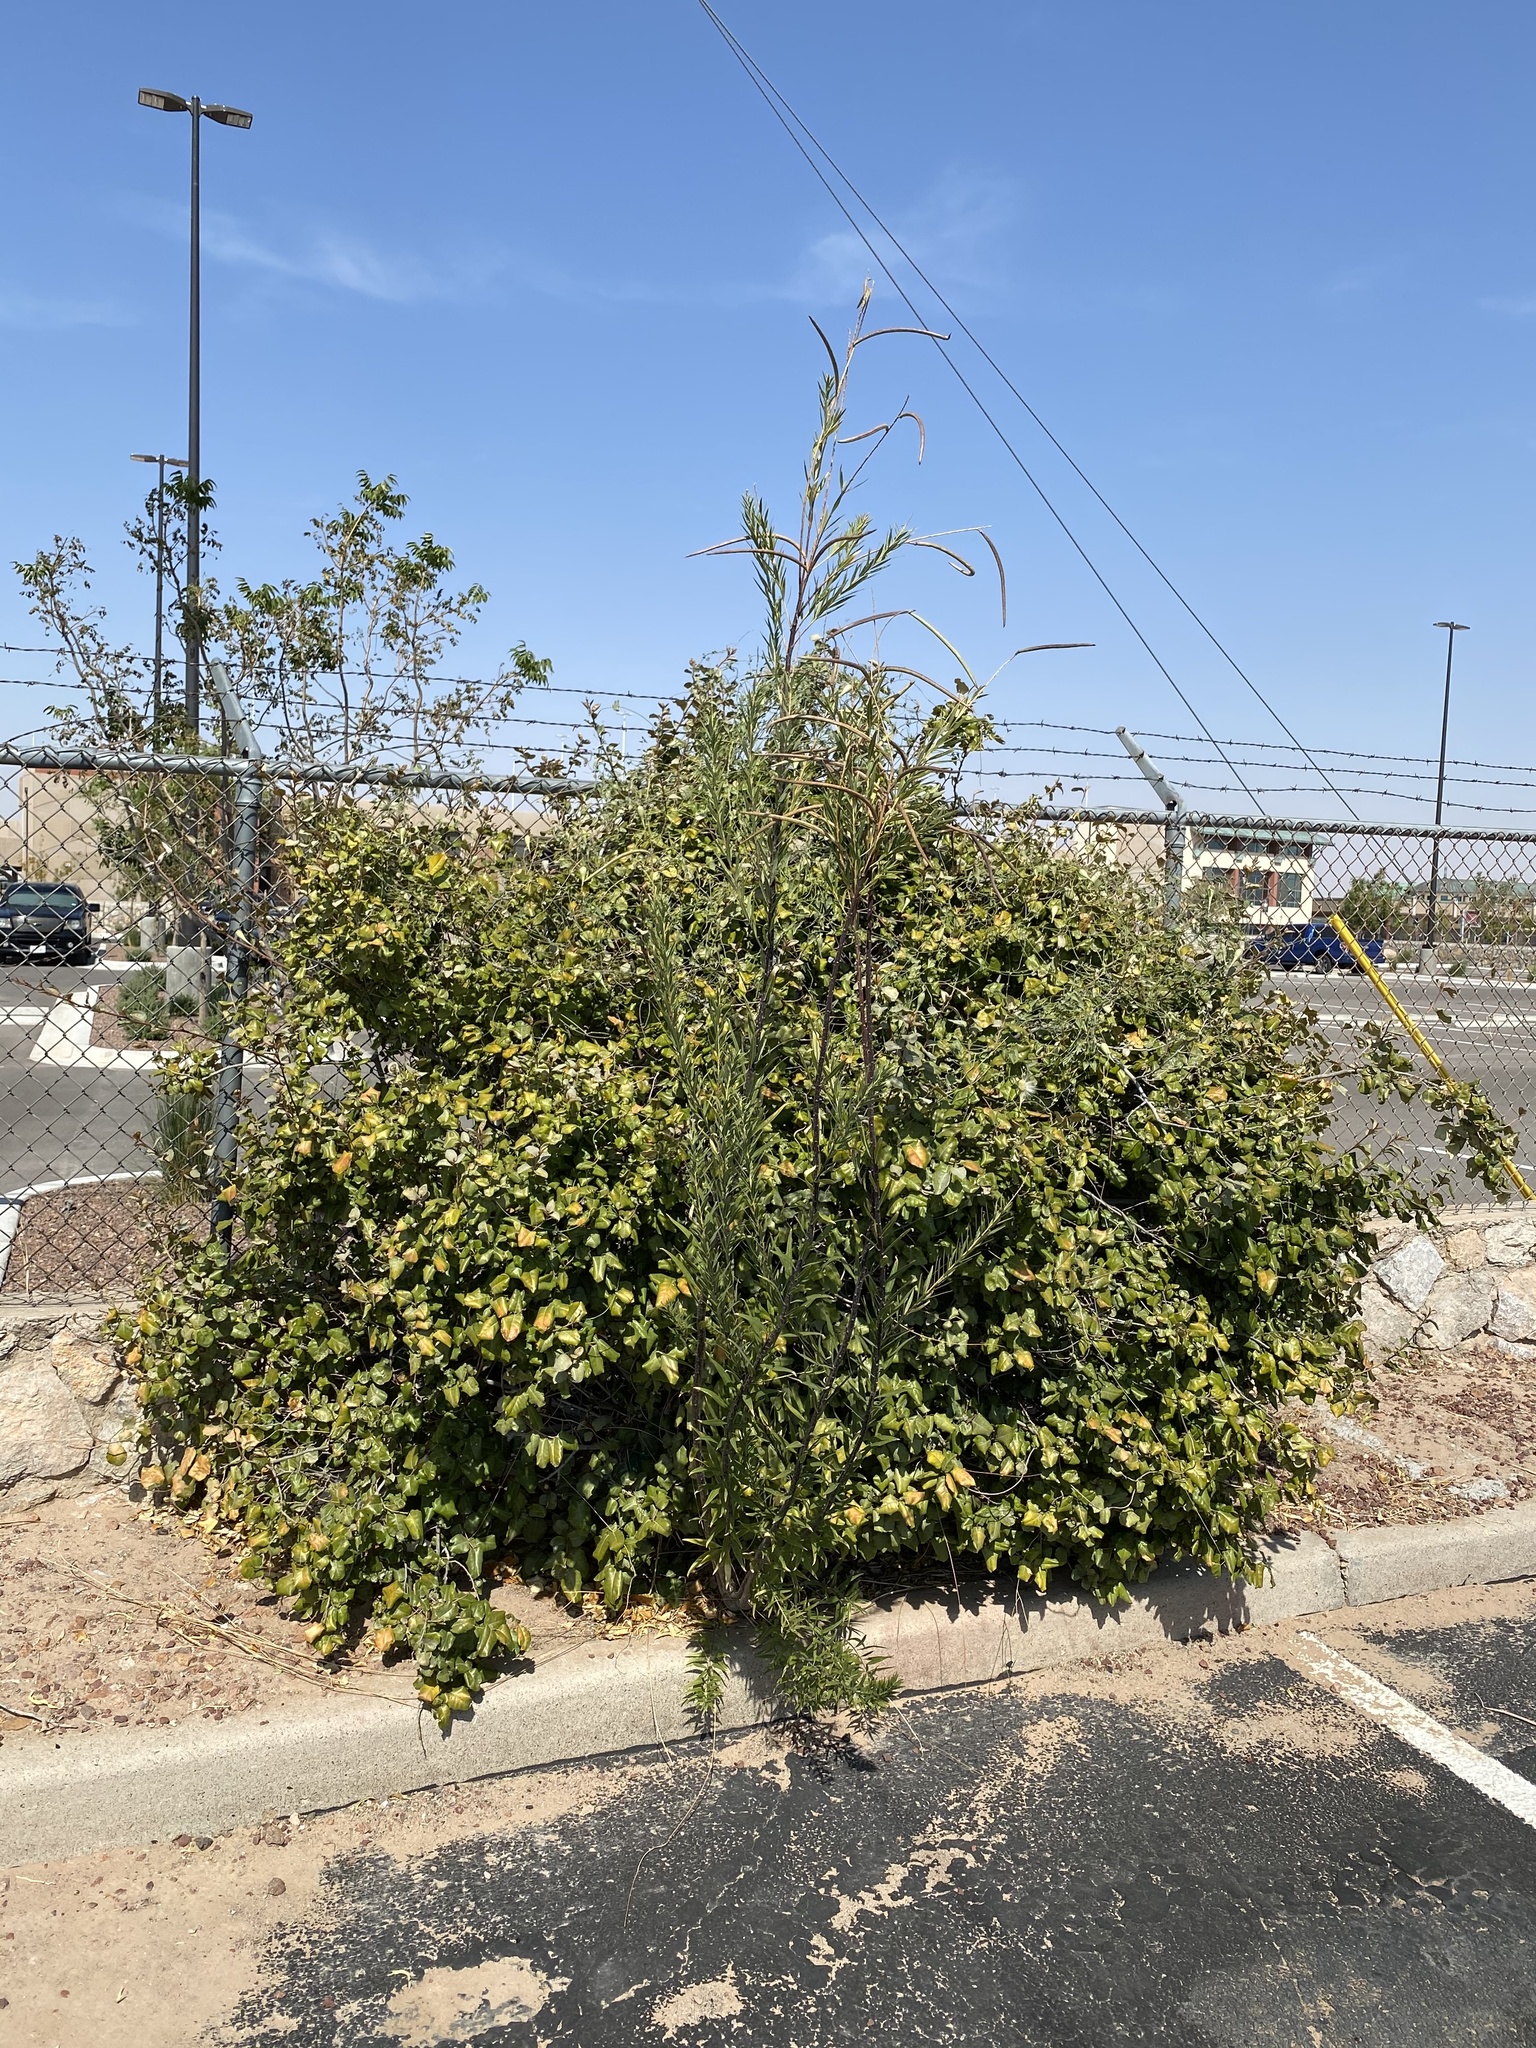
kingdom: Plantae
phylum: Tracheophyta
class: Magnoliopsida
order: Lamiales
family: Bignoniaceae
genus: Chilopsis
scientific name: Chilopsis linearis
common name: Desert-willow
